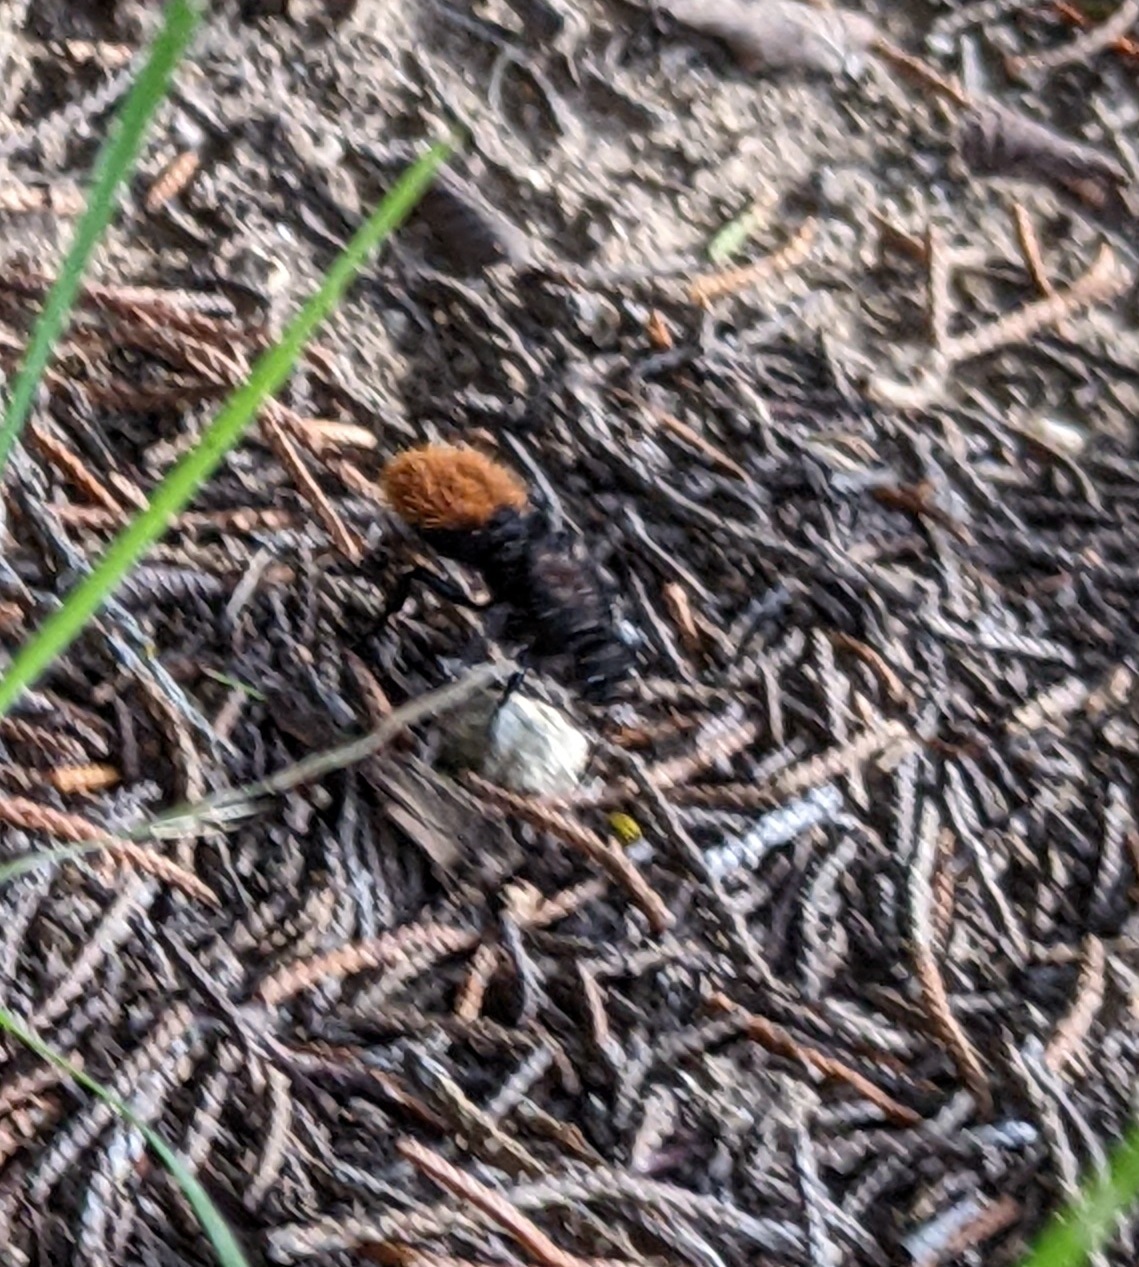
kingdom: Animalia
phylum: Arthropoda
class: Insecta
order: Hymenoptera
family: Mutillidae
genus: Dasymutilla
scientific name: Dasymutilla
